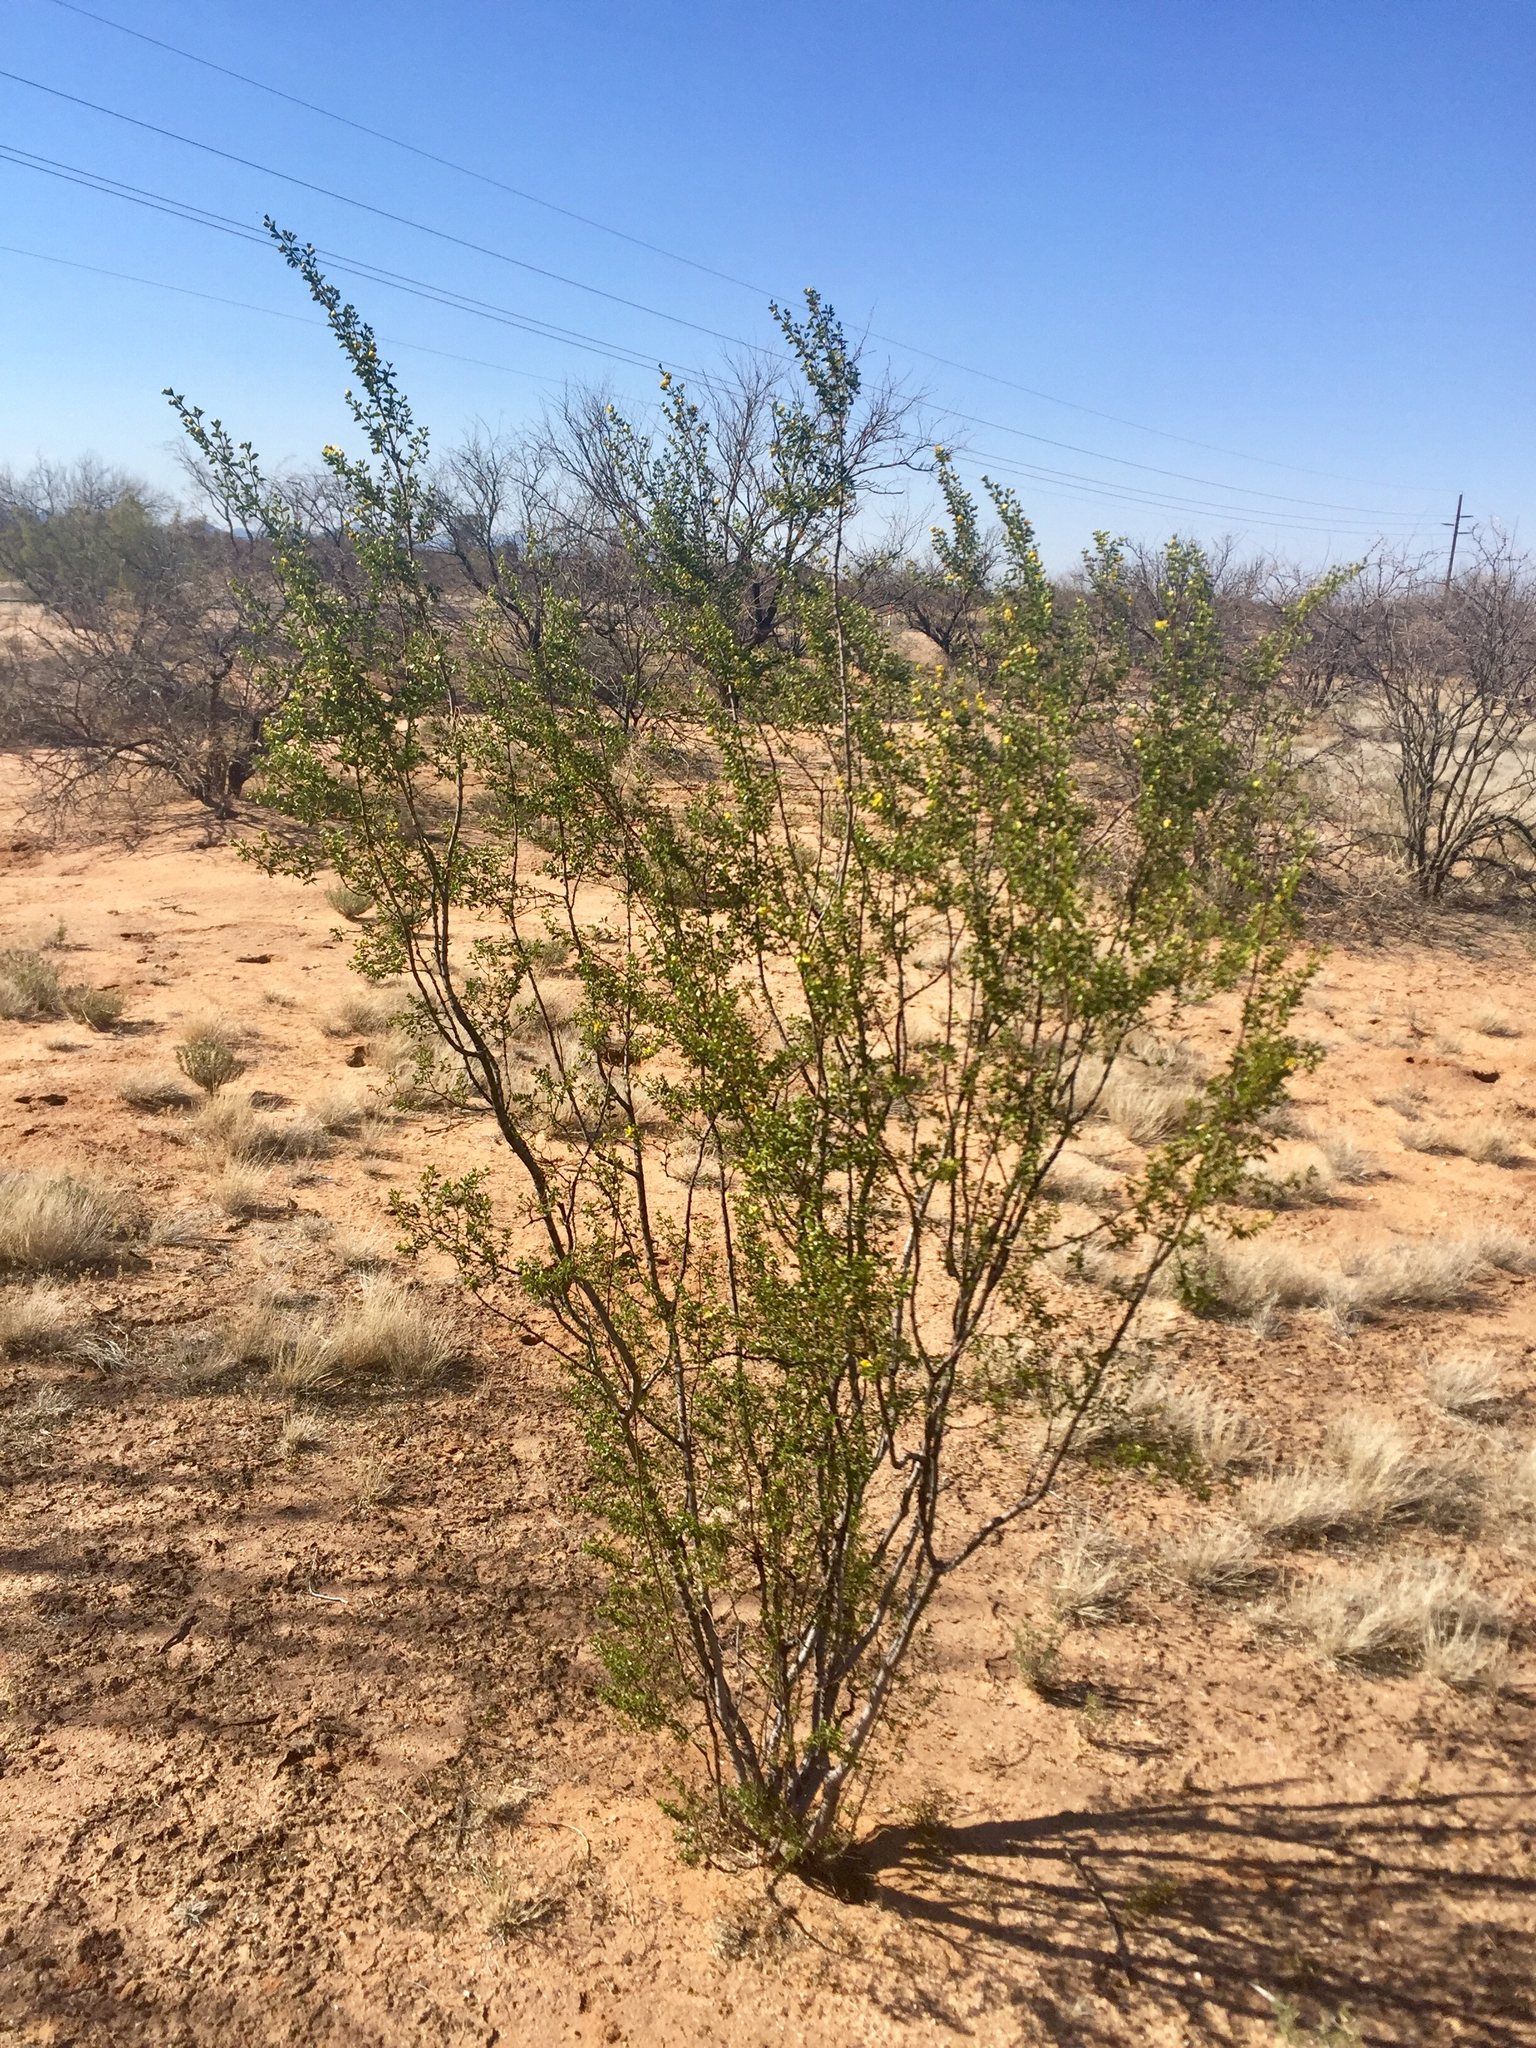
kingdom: Plantae
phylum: Tracheophyta
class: Magnoliopsida
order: Zygophyllales
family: Zygophyllaceae
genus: Larrea
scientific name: Larrea tridentata
